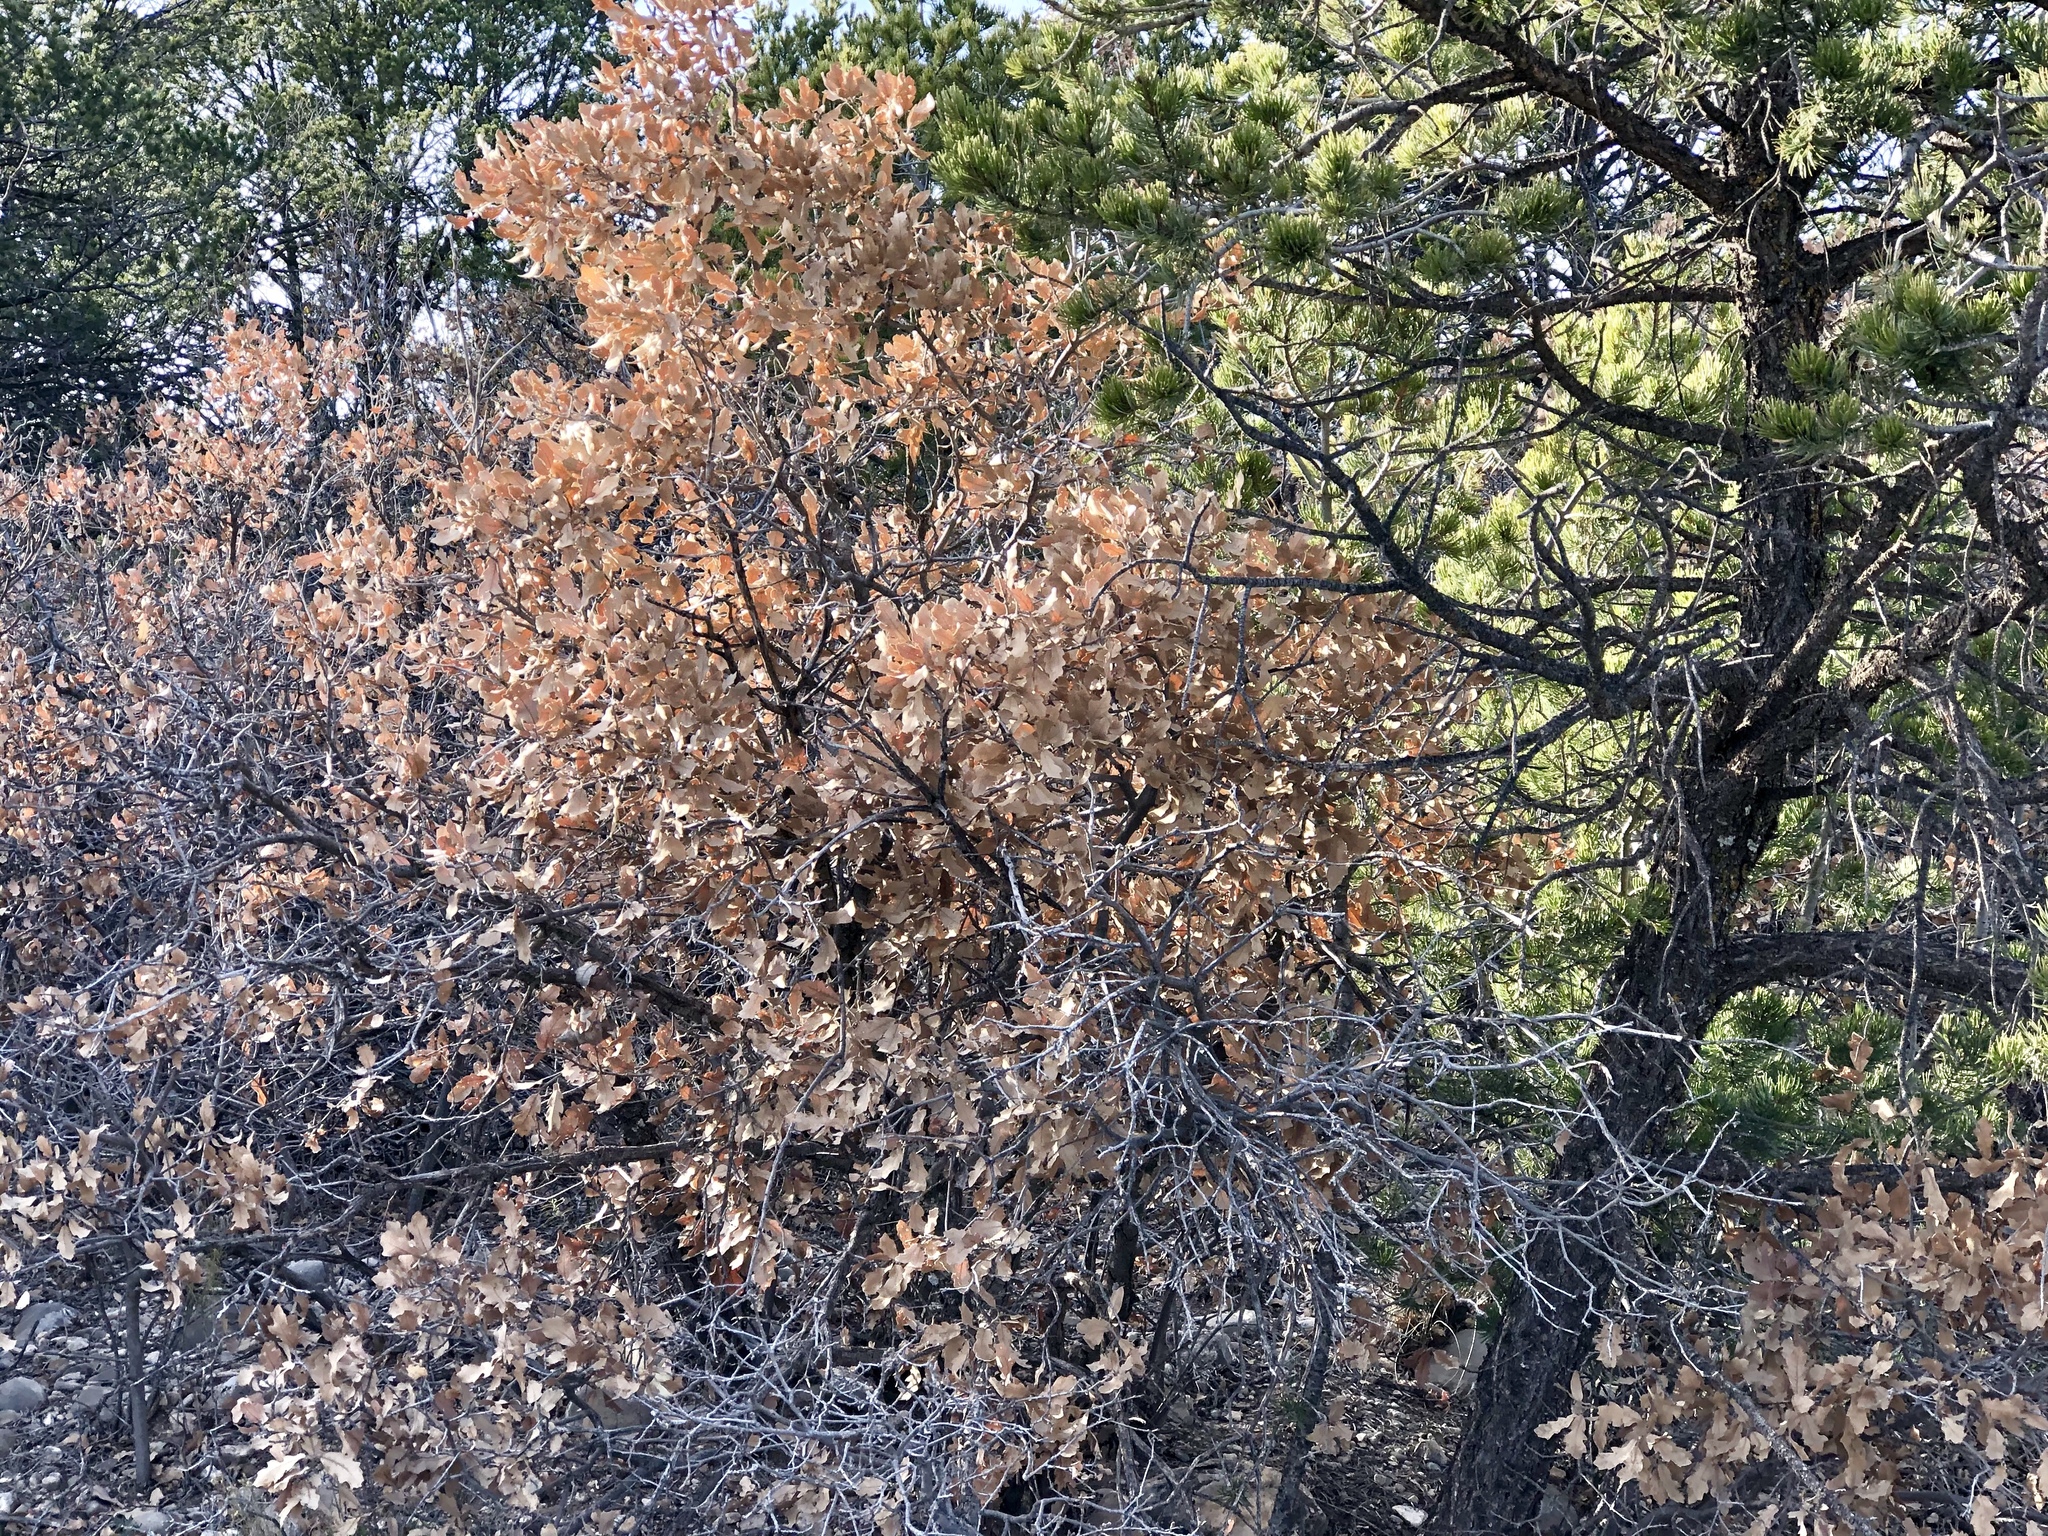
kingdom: Plantae
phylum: Tracheophyta
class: Magnoliopsida
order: Fagales
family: Fagaceae
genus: Quercus
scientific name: Quercus gambelii
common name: Gambel oak
